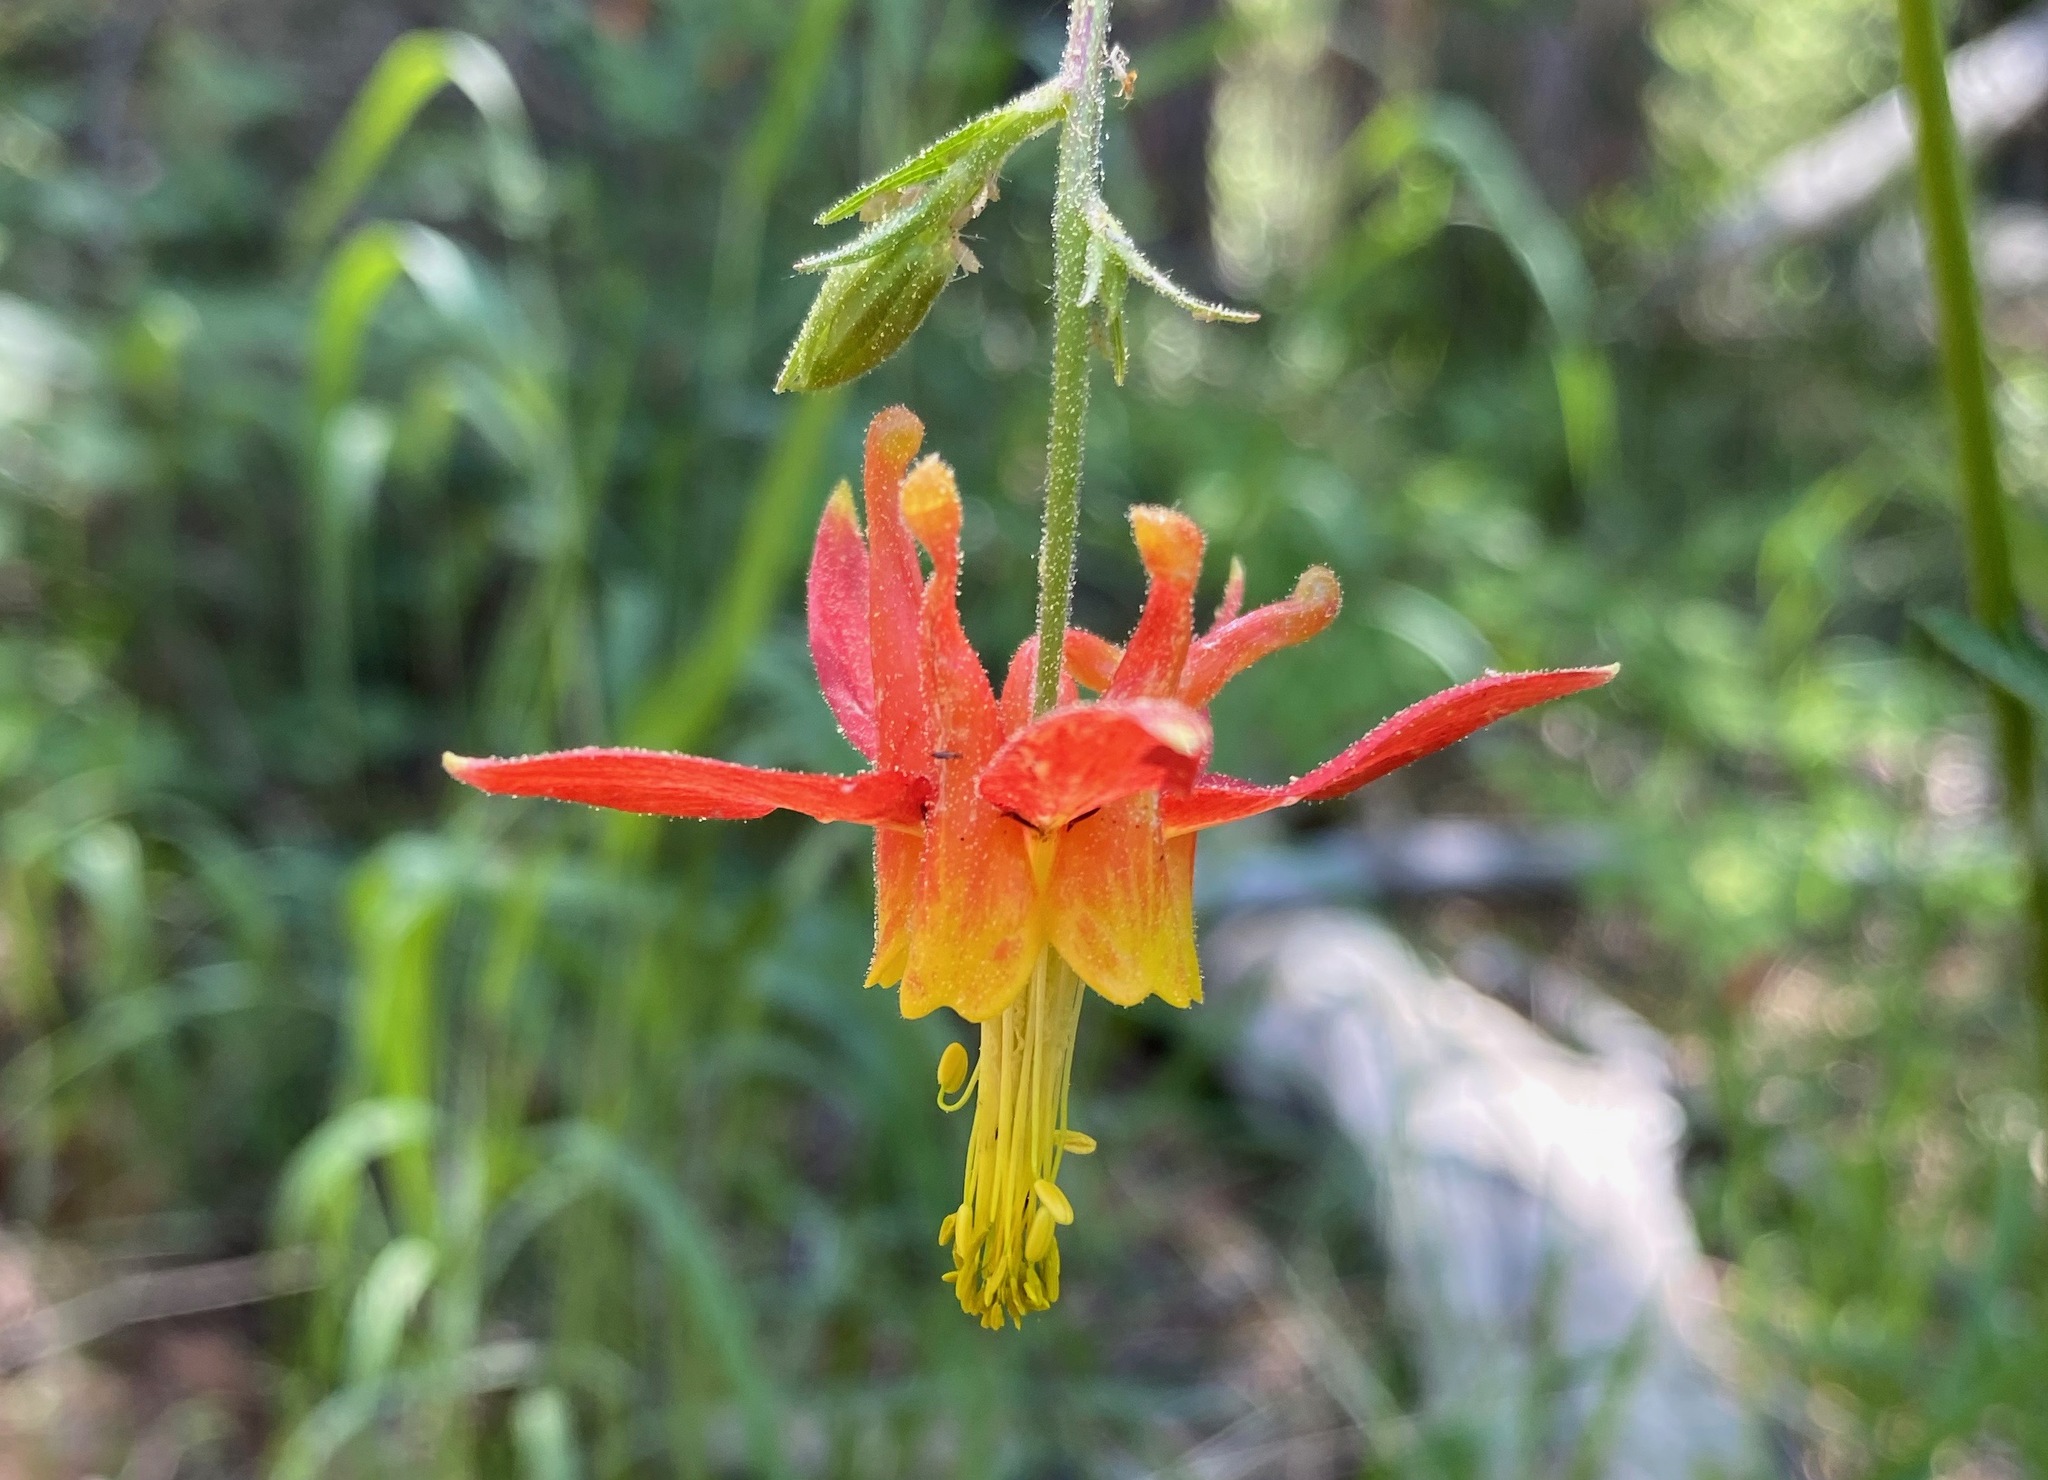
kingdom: Plantae
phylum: Tracheophyta
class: Magnoliopsida
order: Ranunculales
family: Ranunculaceae
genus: Aquilegia
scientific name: Aquilegia formosa
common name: Sitka columbine
